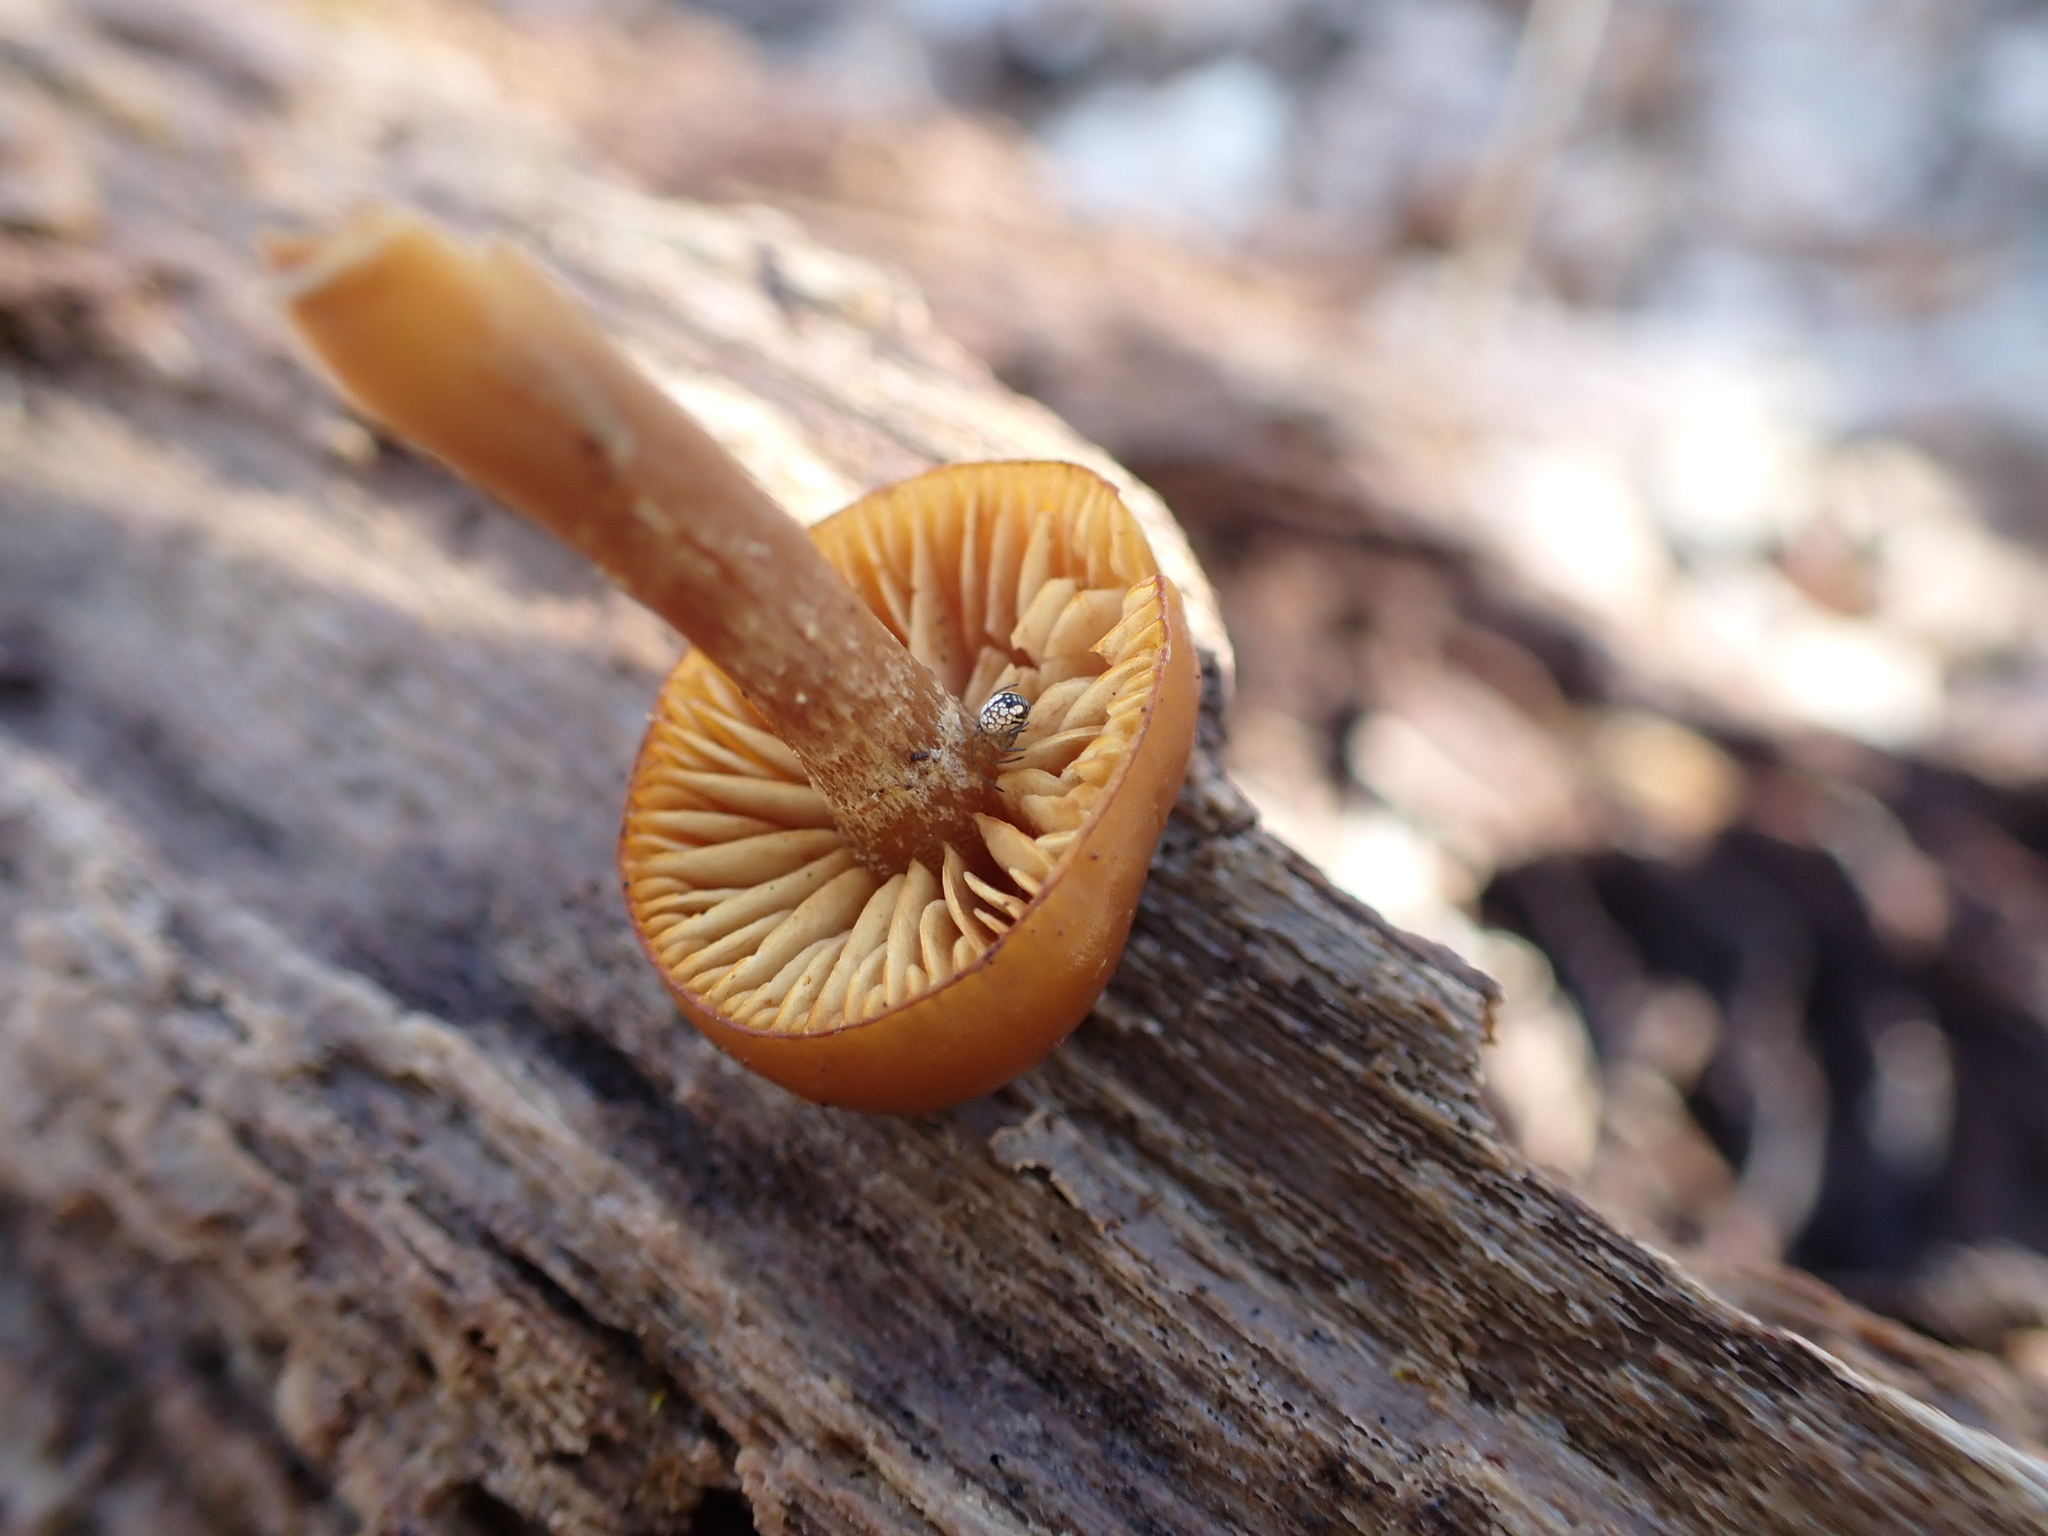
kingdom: Fungi
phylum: Basidiomycota
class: Agaricomycetes
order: Agaricales
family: Hymenogastraceae
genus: Galerina
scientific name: Galerina marginata
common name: Funeral bell
